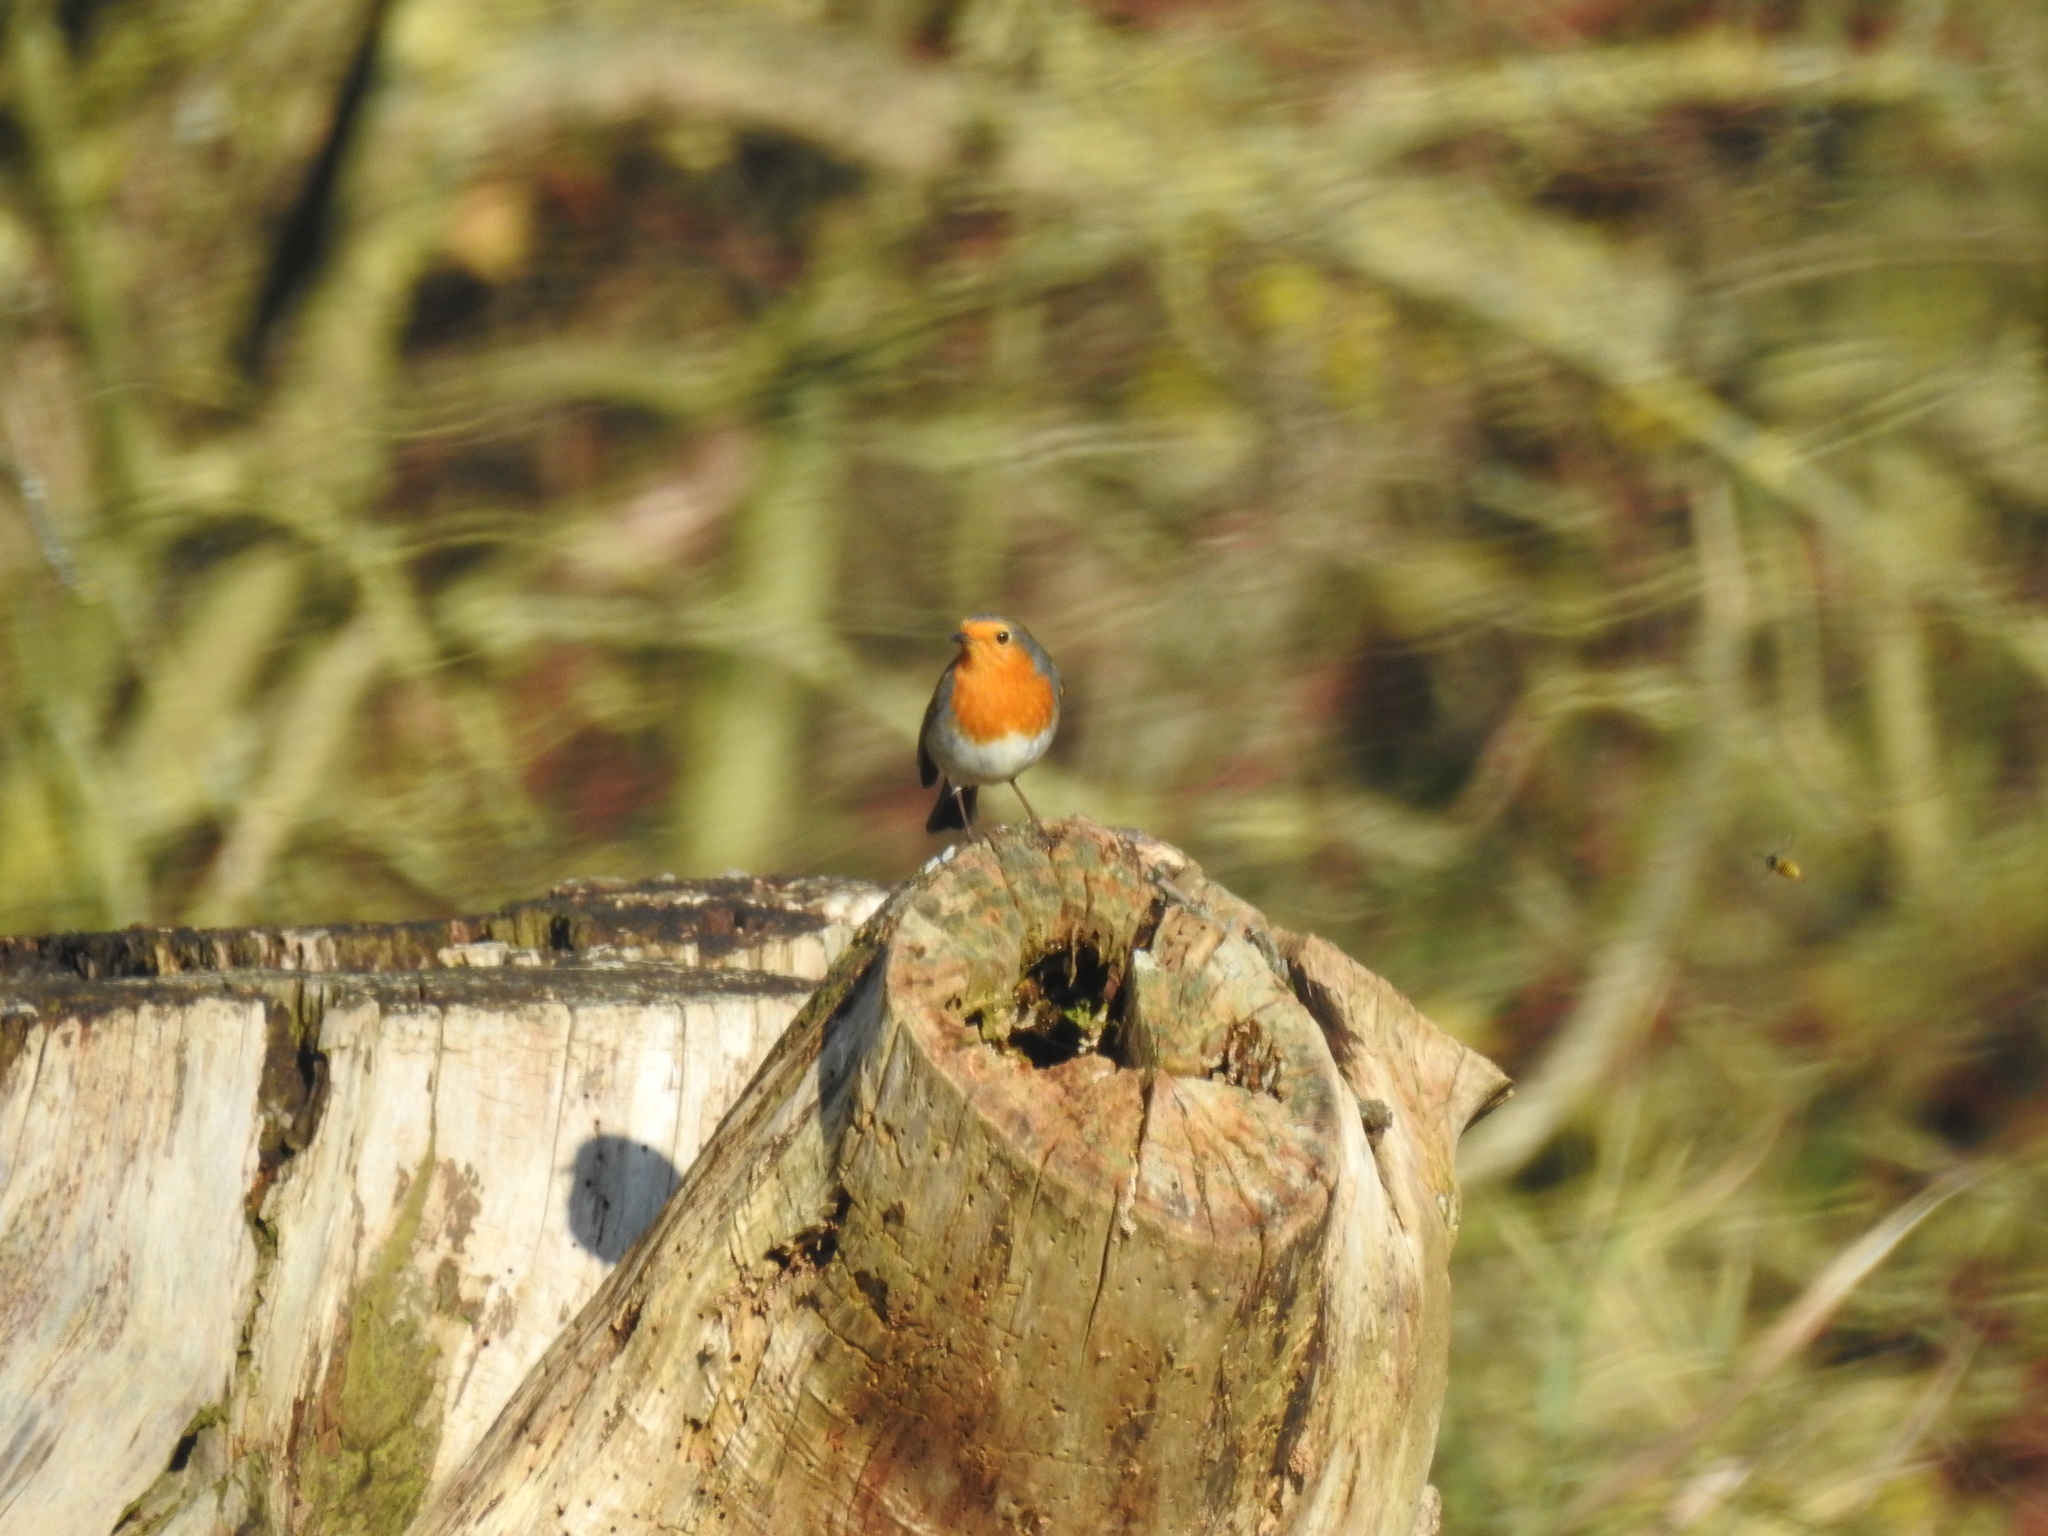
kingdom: Animalia
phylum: Chordata
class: Aves
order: Passeriformes
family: Muscicapidae
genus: Erithacus
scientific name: Erithacus rubecula
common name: European robin
